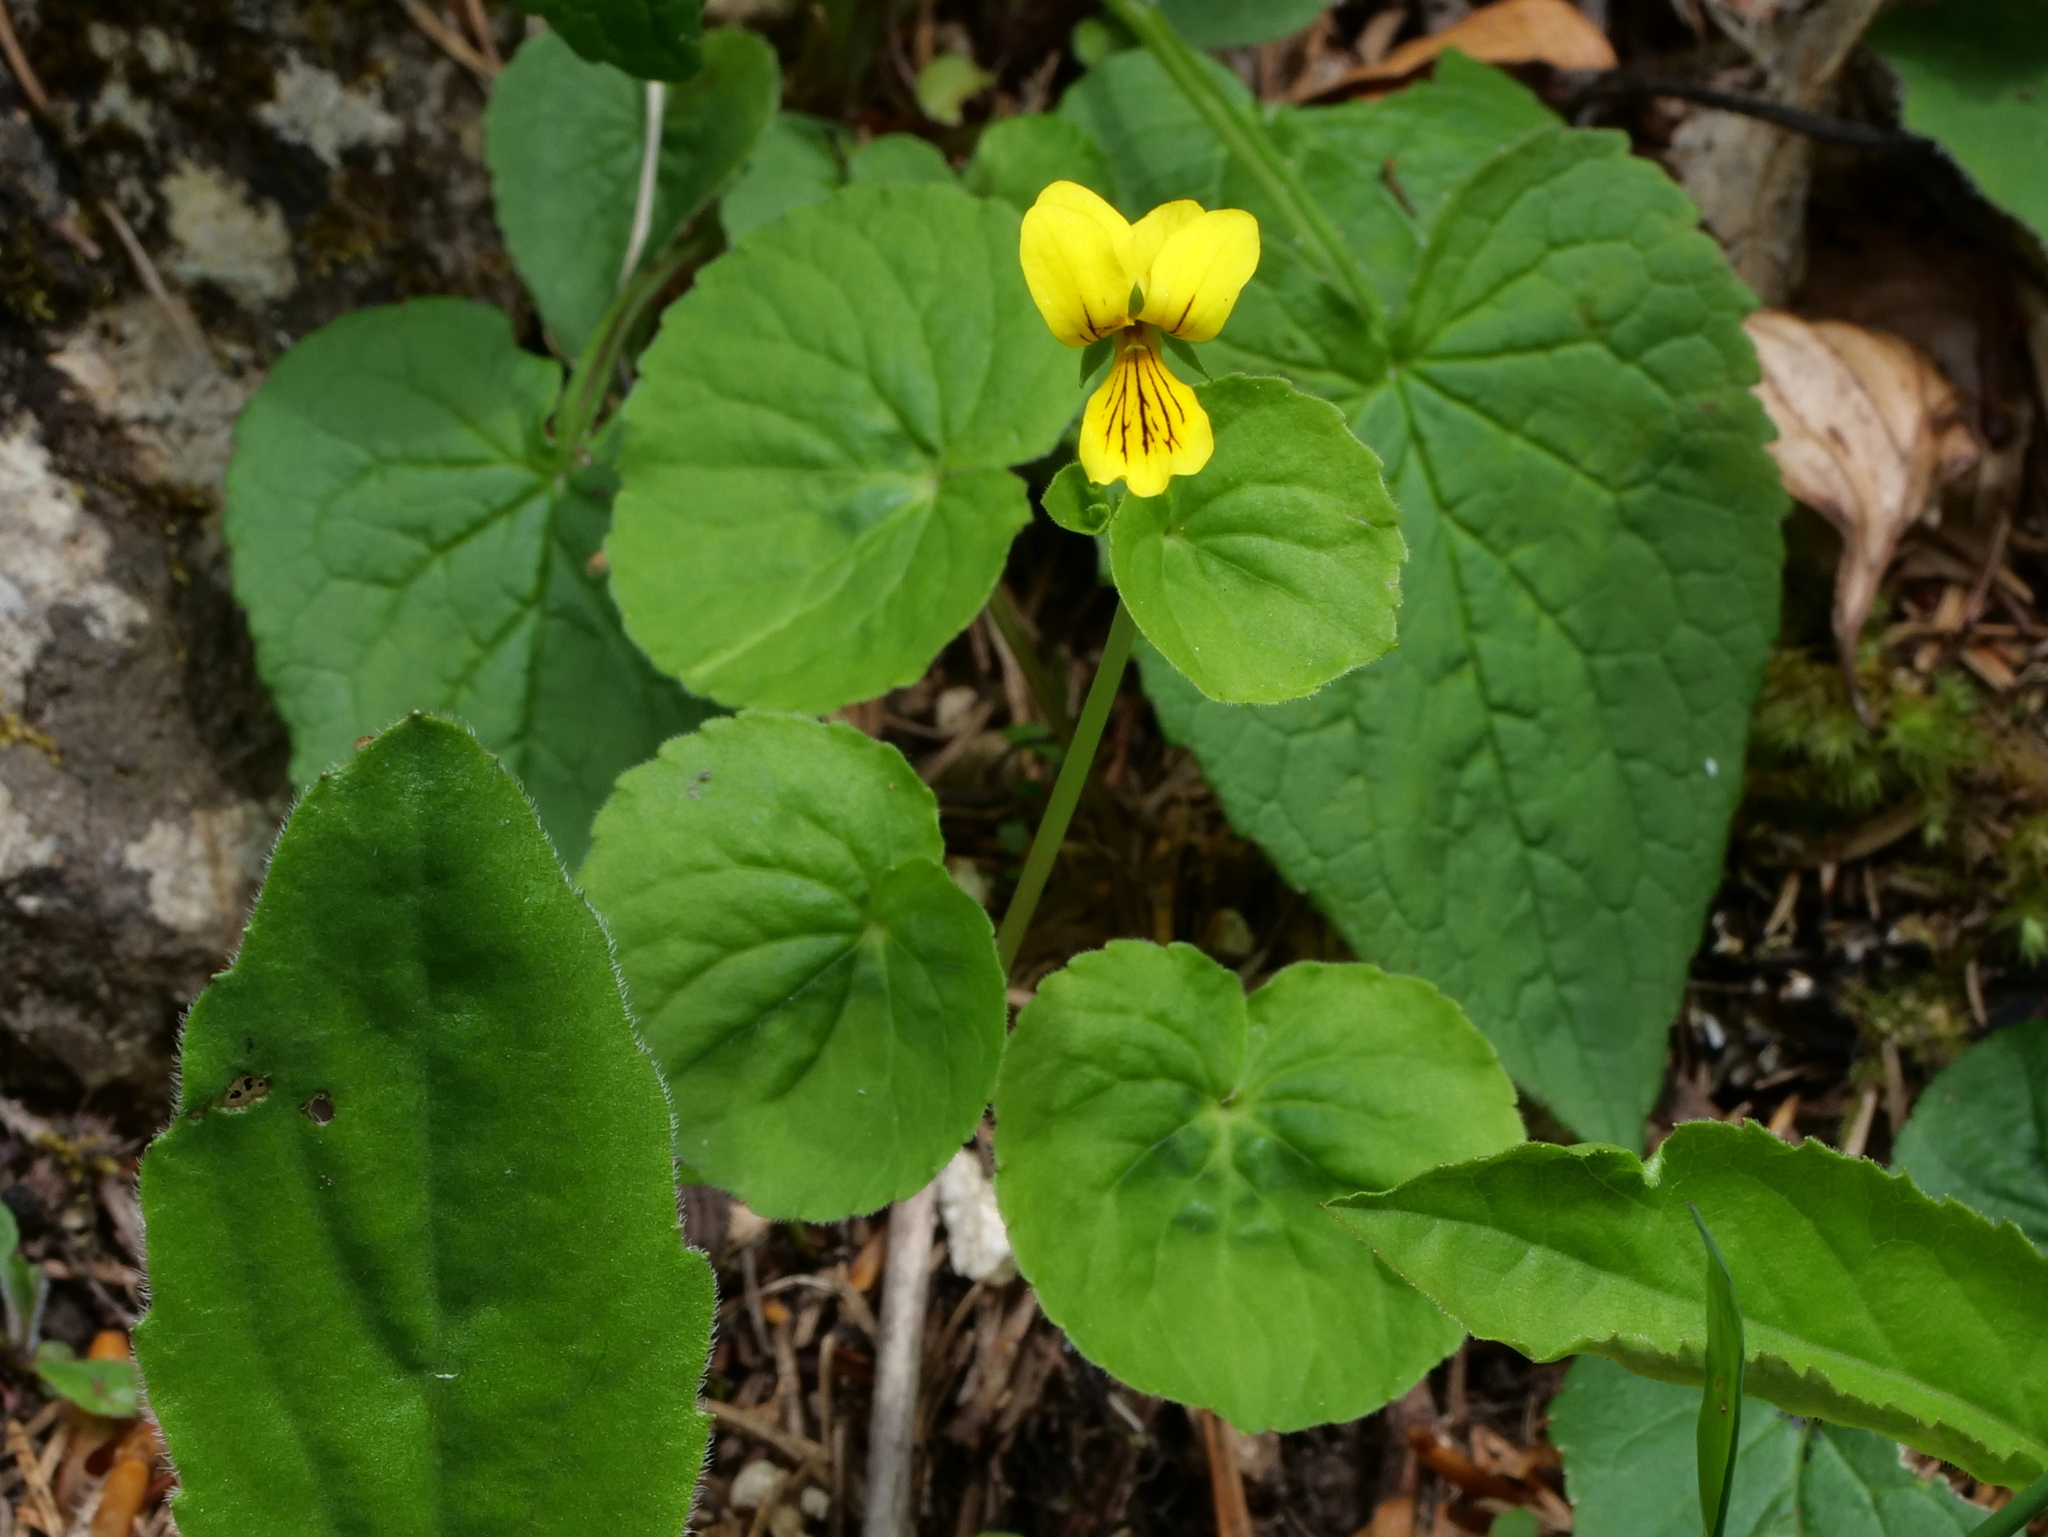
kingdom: Plantae
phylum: Tracheophyta
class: Magnoliopsida
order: Malpighiales
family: Violaceae
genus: Viola
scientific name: Viola biflora
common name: Alpine yellow violet
